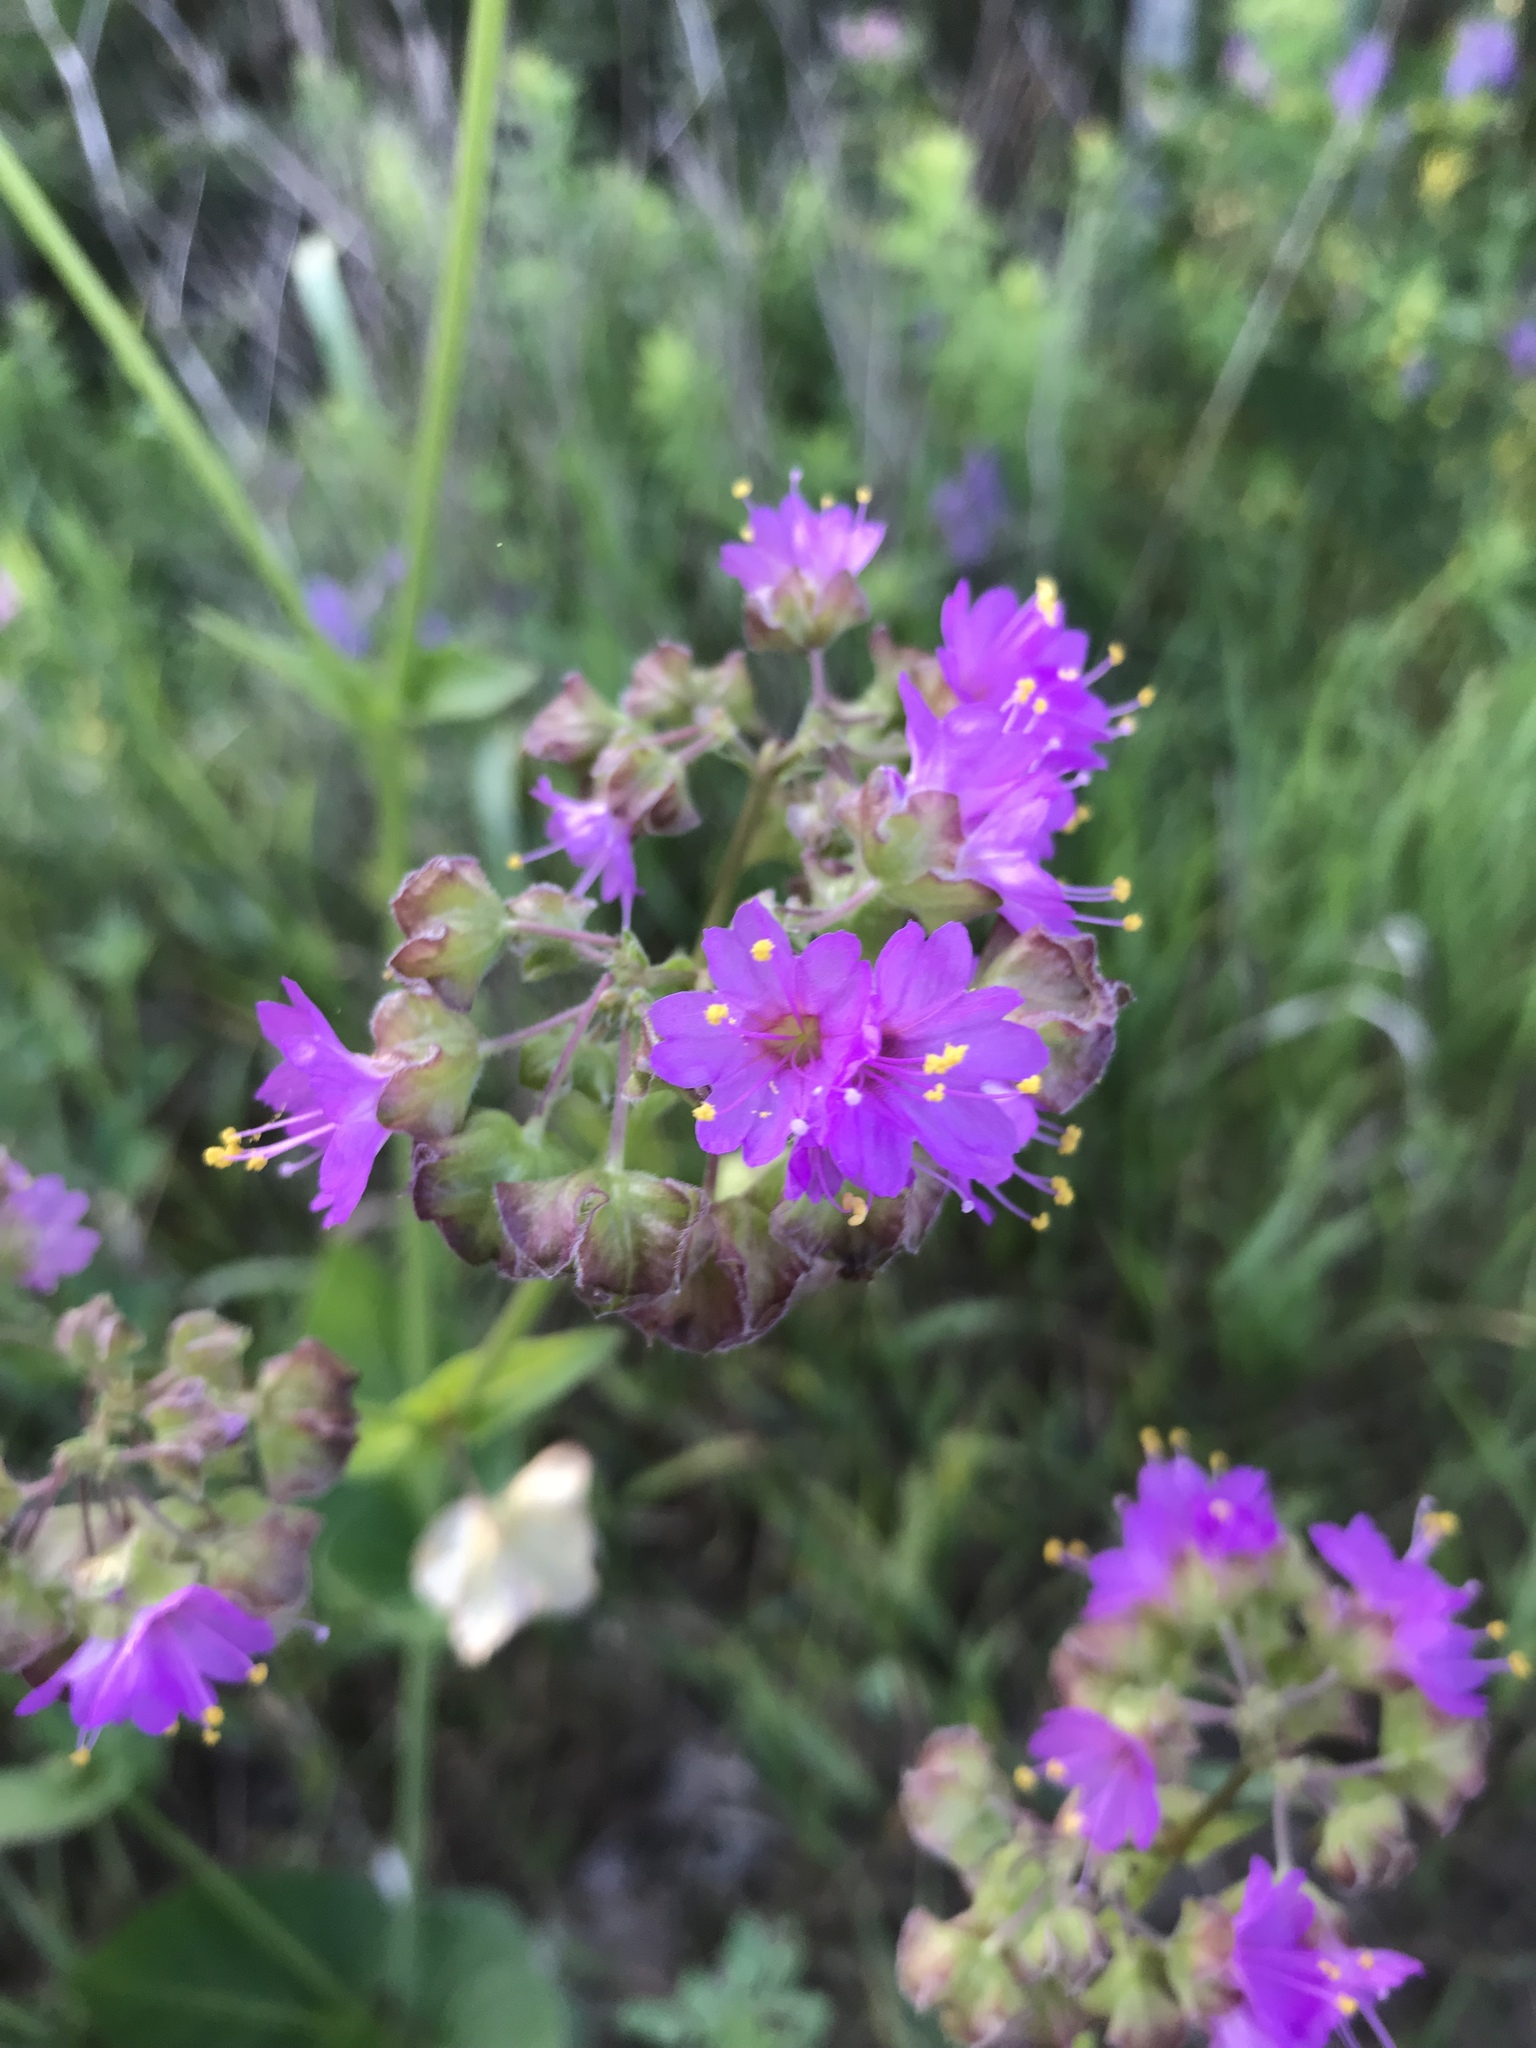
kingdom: Plantae
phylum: Tracheophyta
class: Magnoliopsida
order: Caryophyllales
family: Nyctaginaceae
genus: Mirabilis
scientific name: Mirabilis nyctaginea
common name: Umbrella wort
